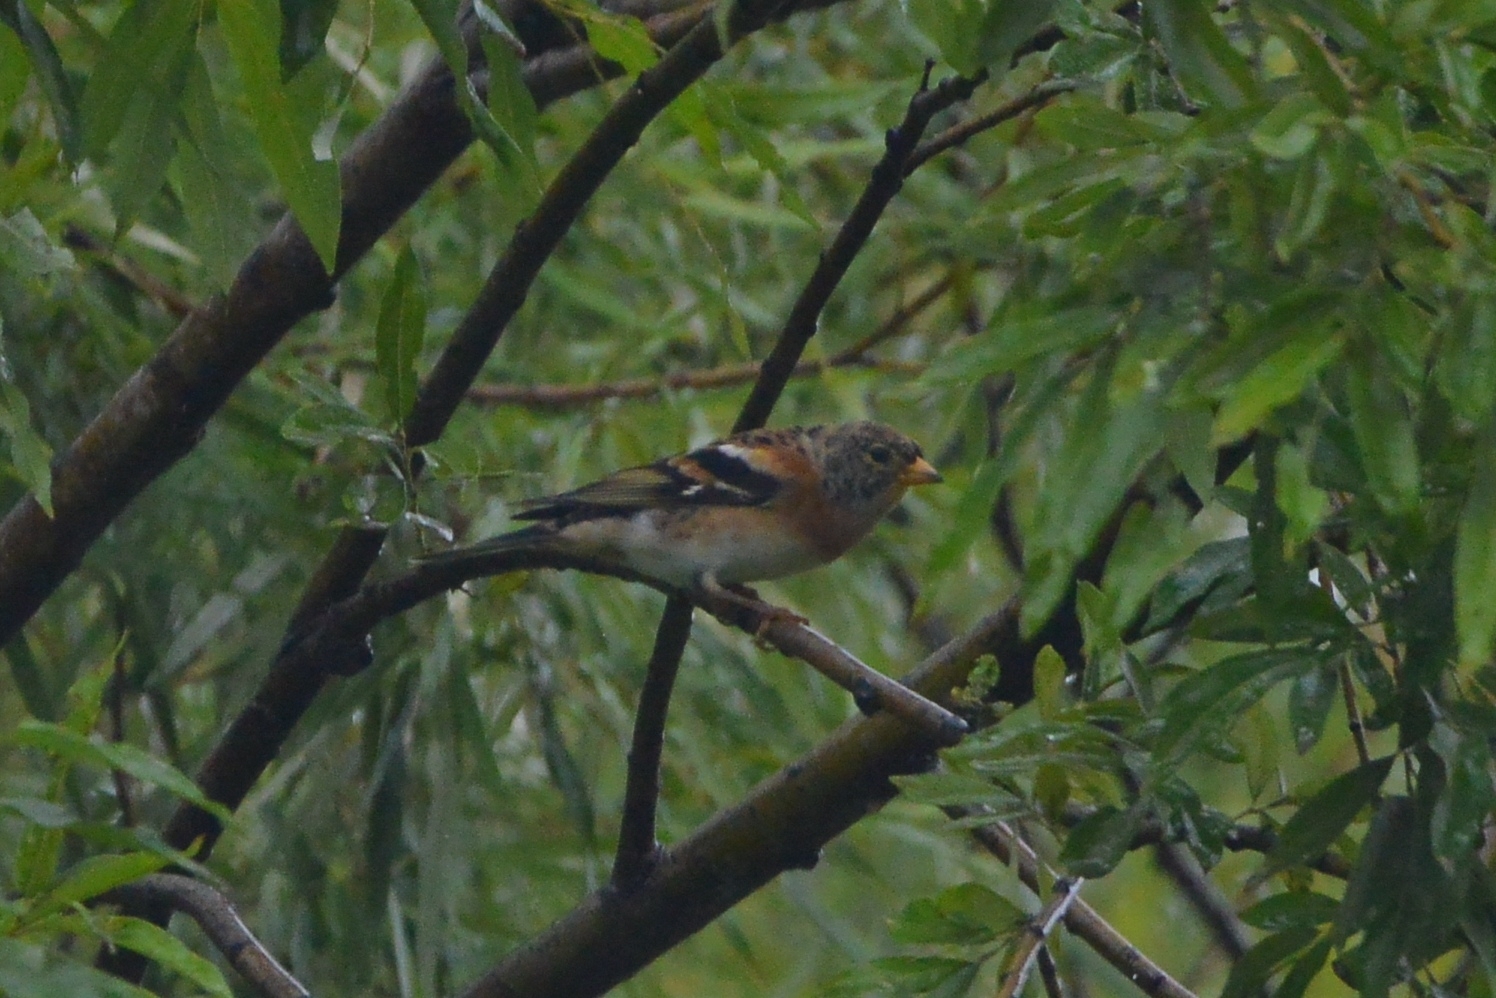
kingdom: Animalia
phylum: Chordata
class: Aves
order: Passeriformes
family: Fringillidae
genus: Fringilla
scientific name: Fringilla montifringilla
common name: Brambling
